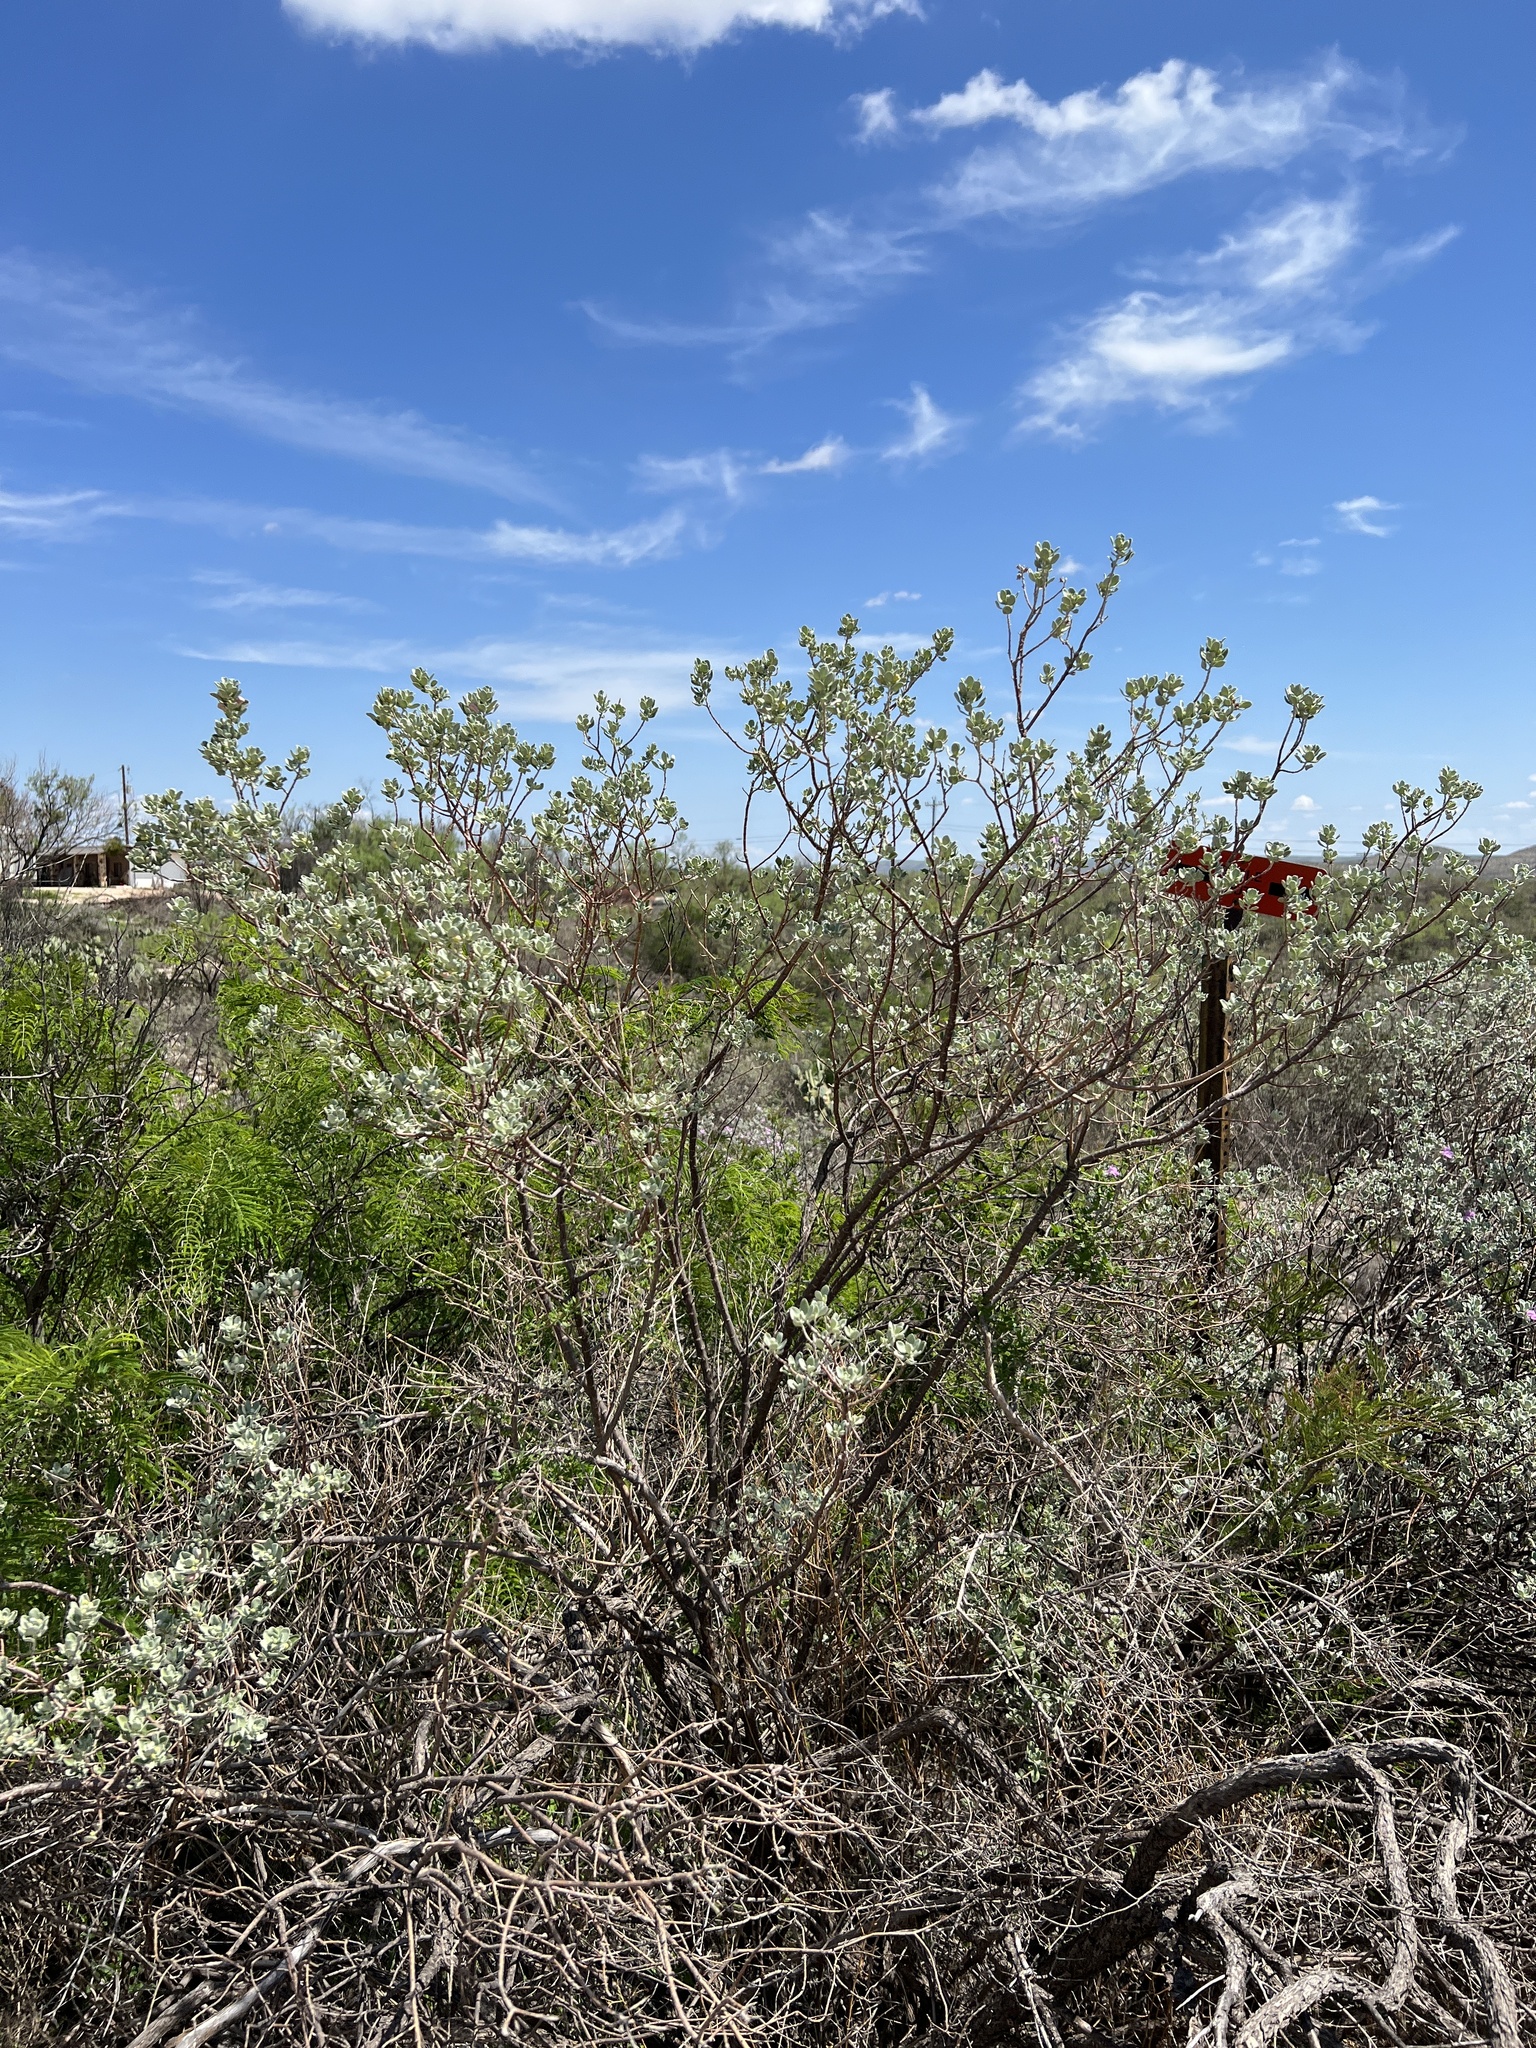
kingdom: Plantae
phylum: Tracheophyta
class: Magnoliopsida
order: Lamiales
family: Scrophulariaceae
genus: Leucophyllum
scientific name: Leucophyllum frutescens
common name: Texas silverleaf
